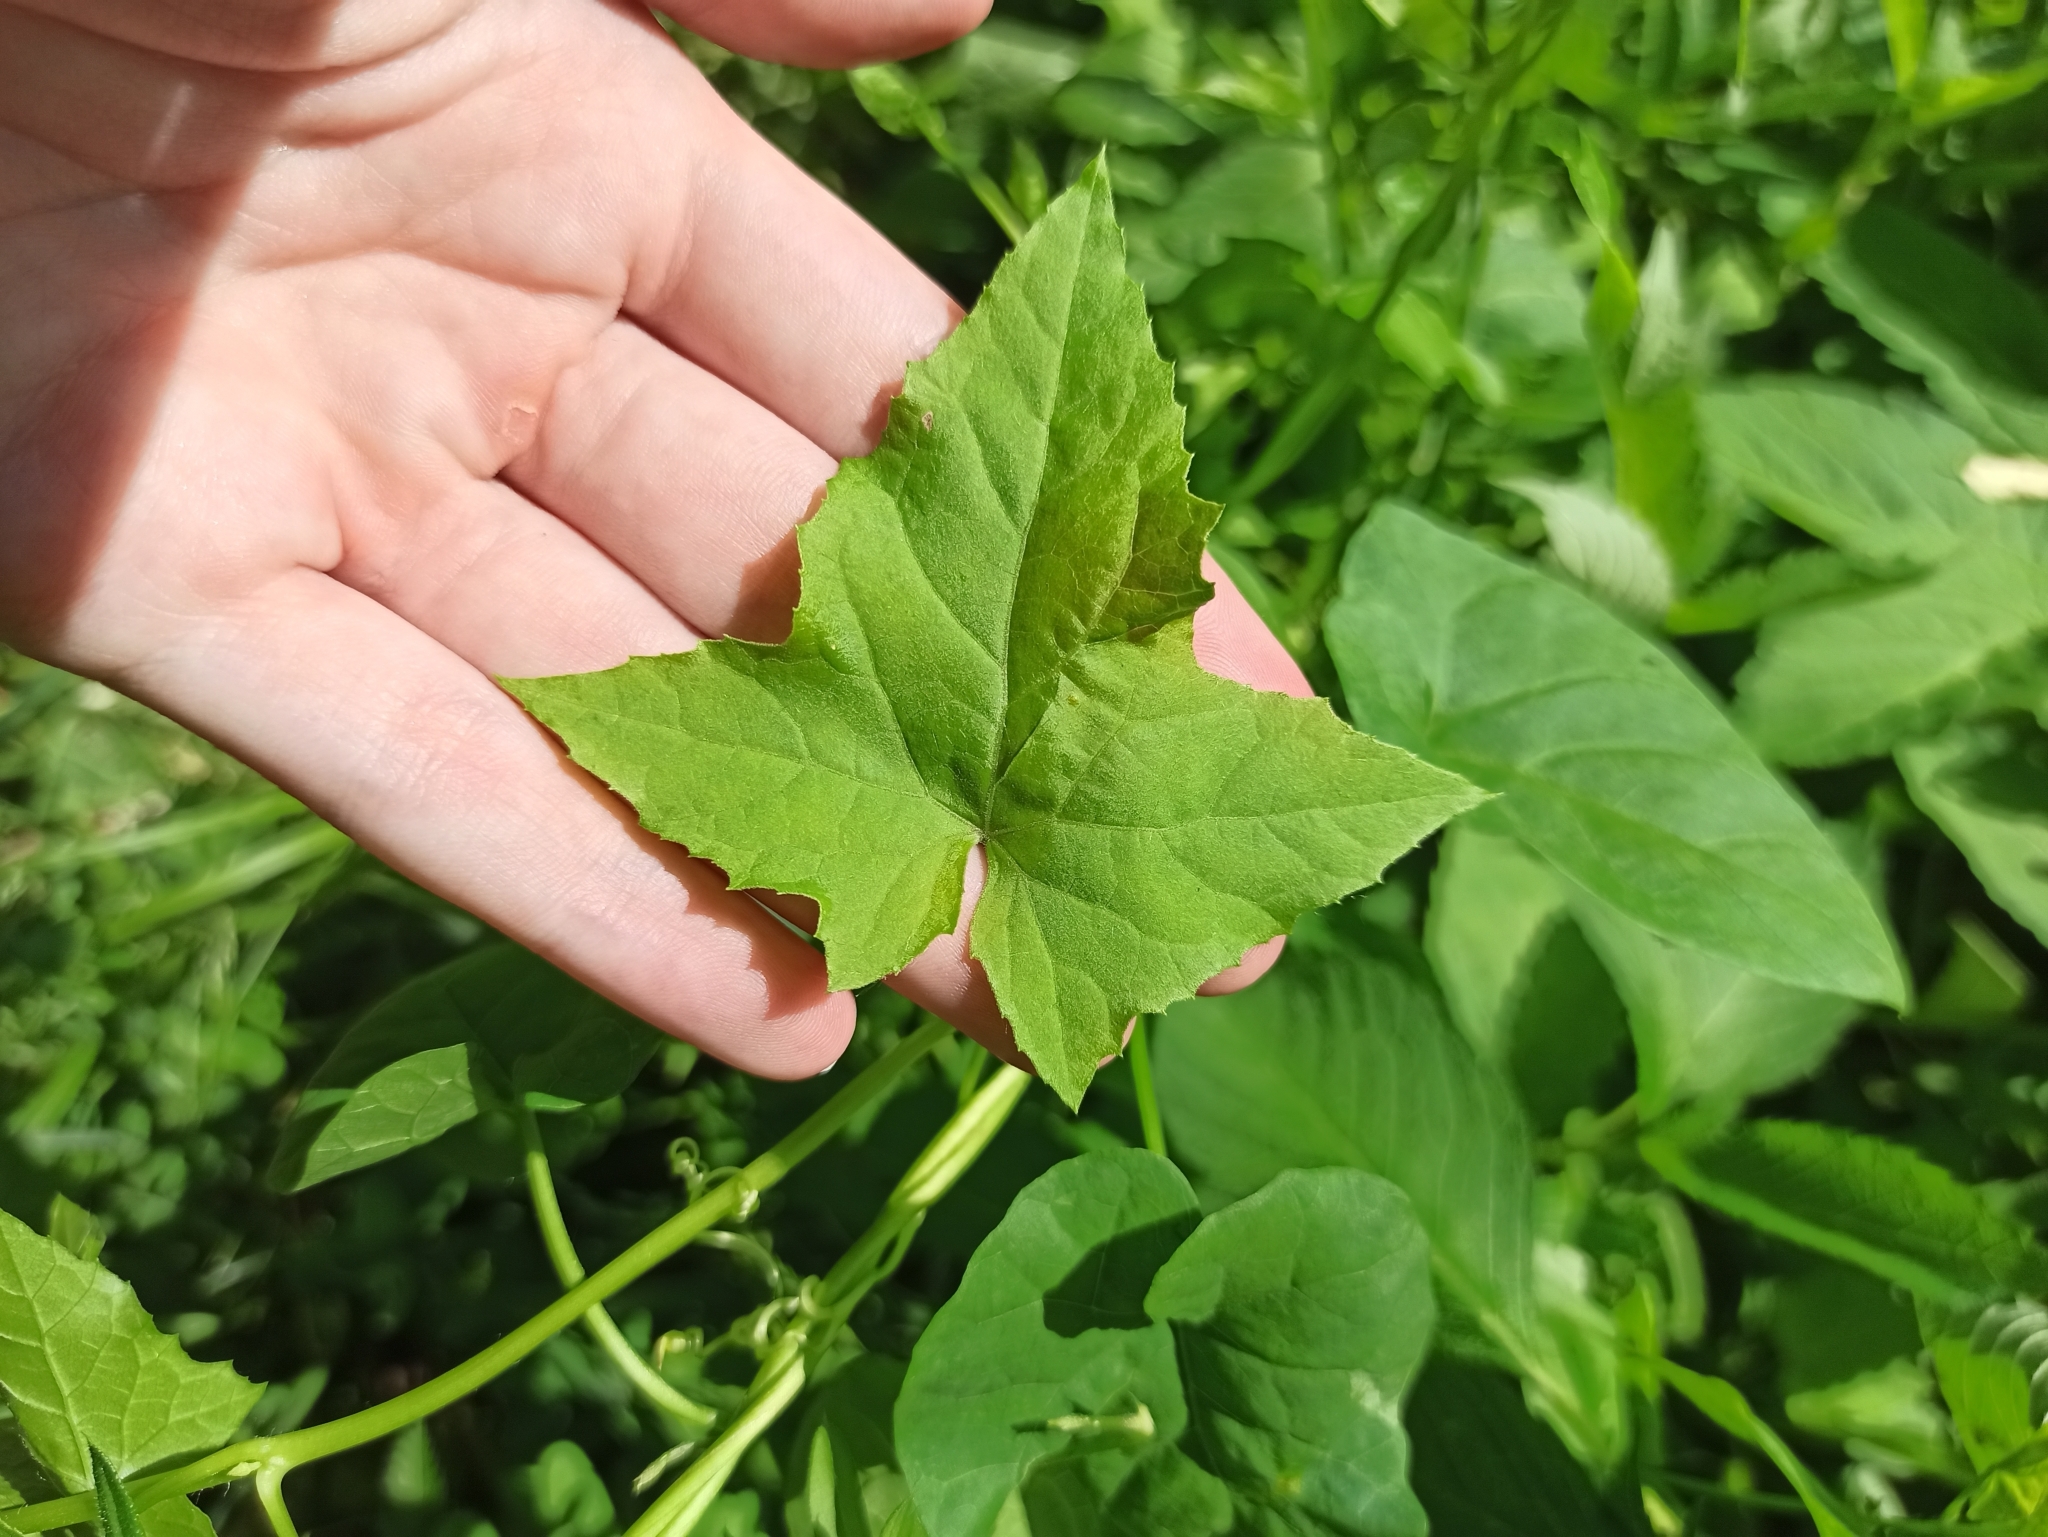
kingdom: Plantae
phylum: Tracheophyta
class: Magnoliopsida
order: Cucurbitales
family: Cucurbitaceae
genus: Echinocystis
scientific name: Echinocystis lobata
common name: Wild cucumber
